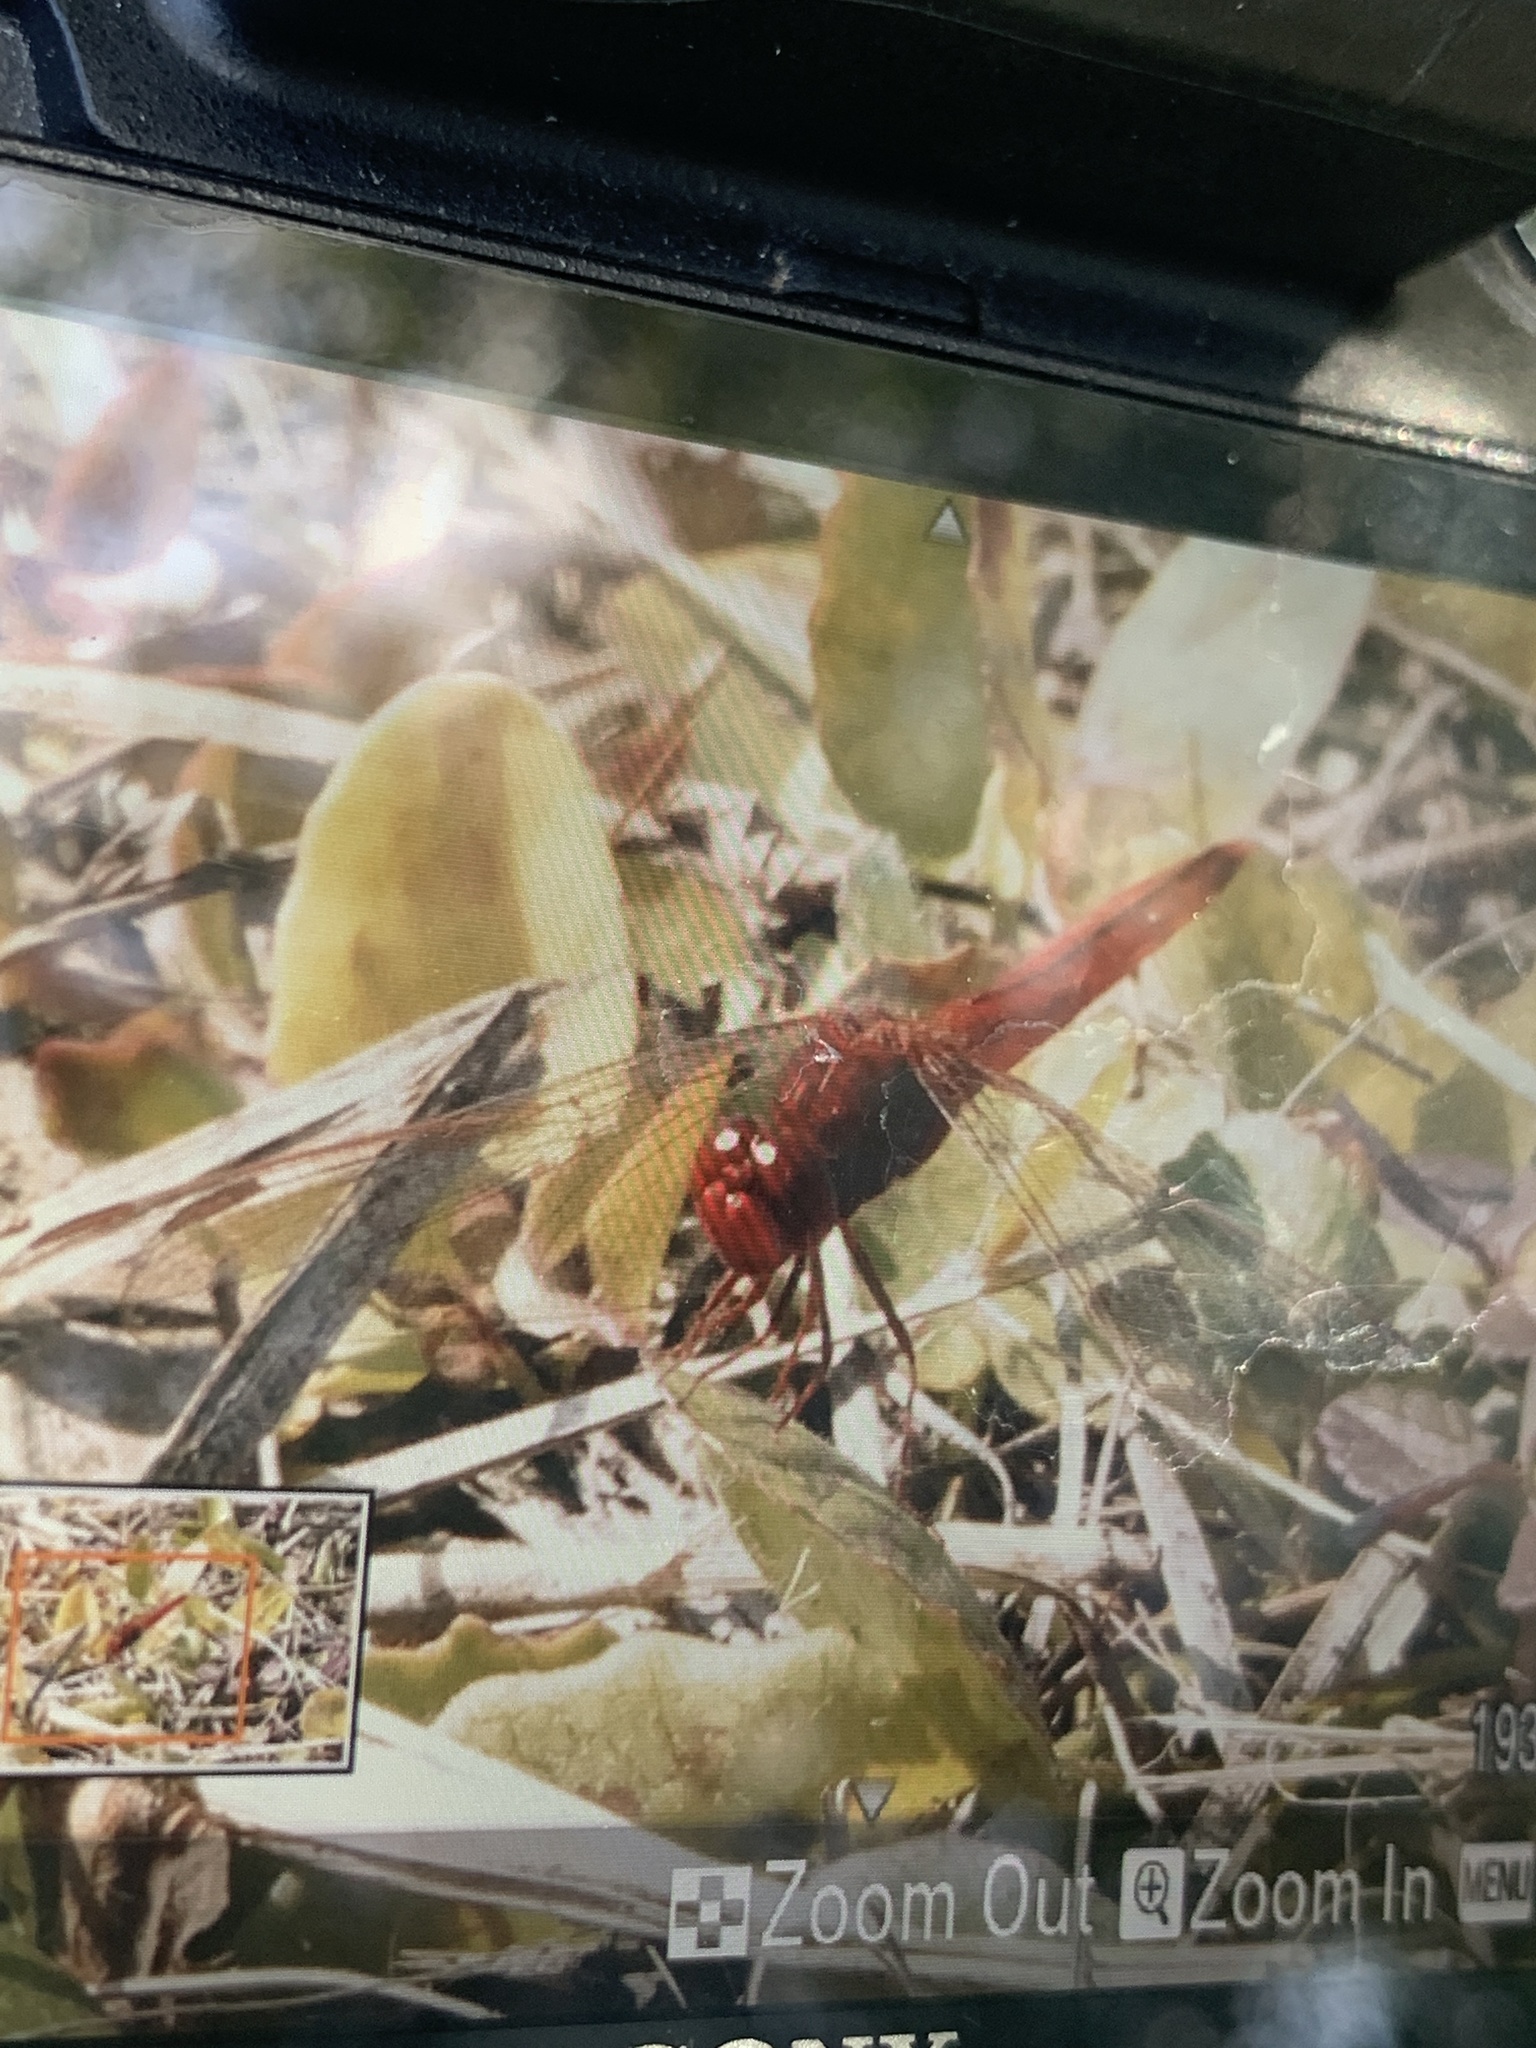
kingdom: Animalia
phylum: Arthropoda
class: Insecta
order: Odonata
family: Libellulidae
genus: Crocothemis
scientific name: Crocothemis servilia
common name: Scarlet skimmer
